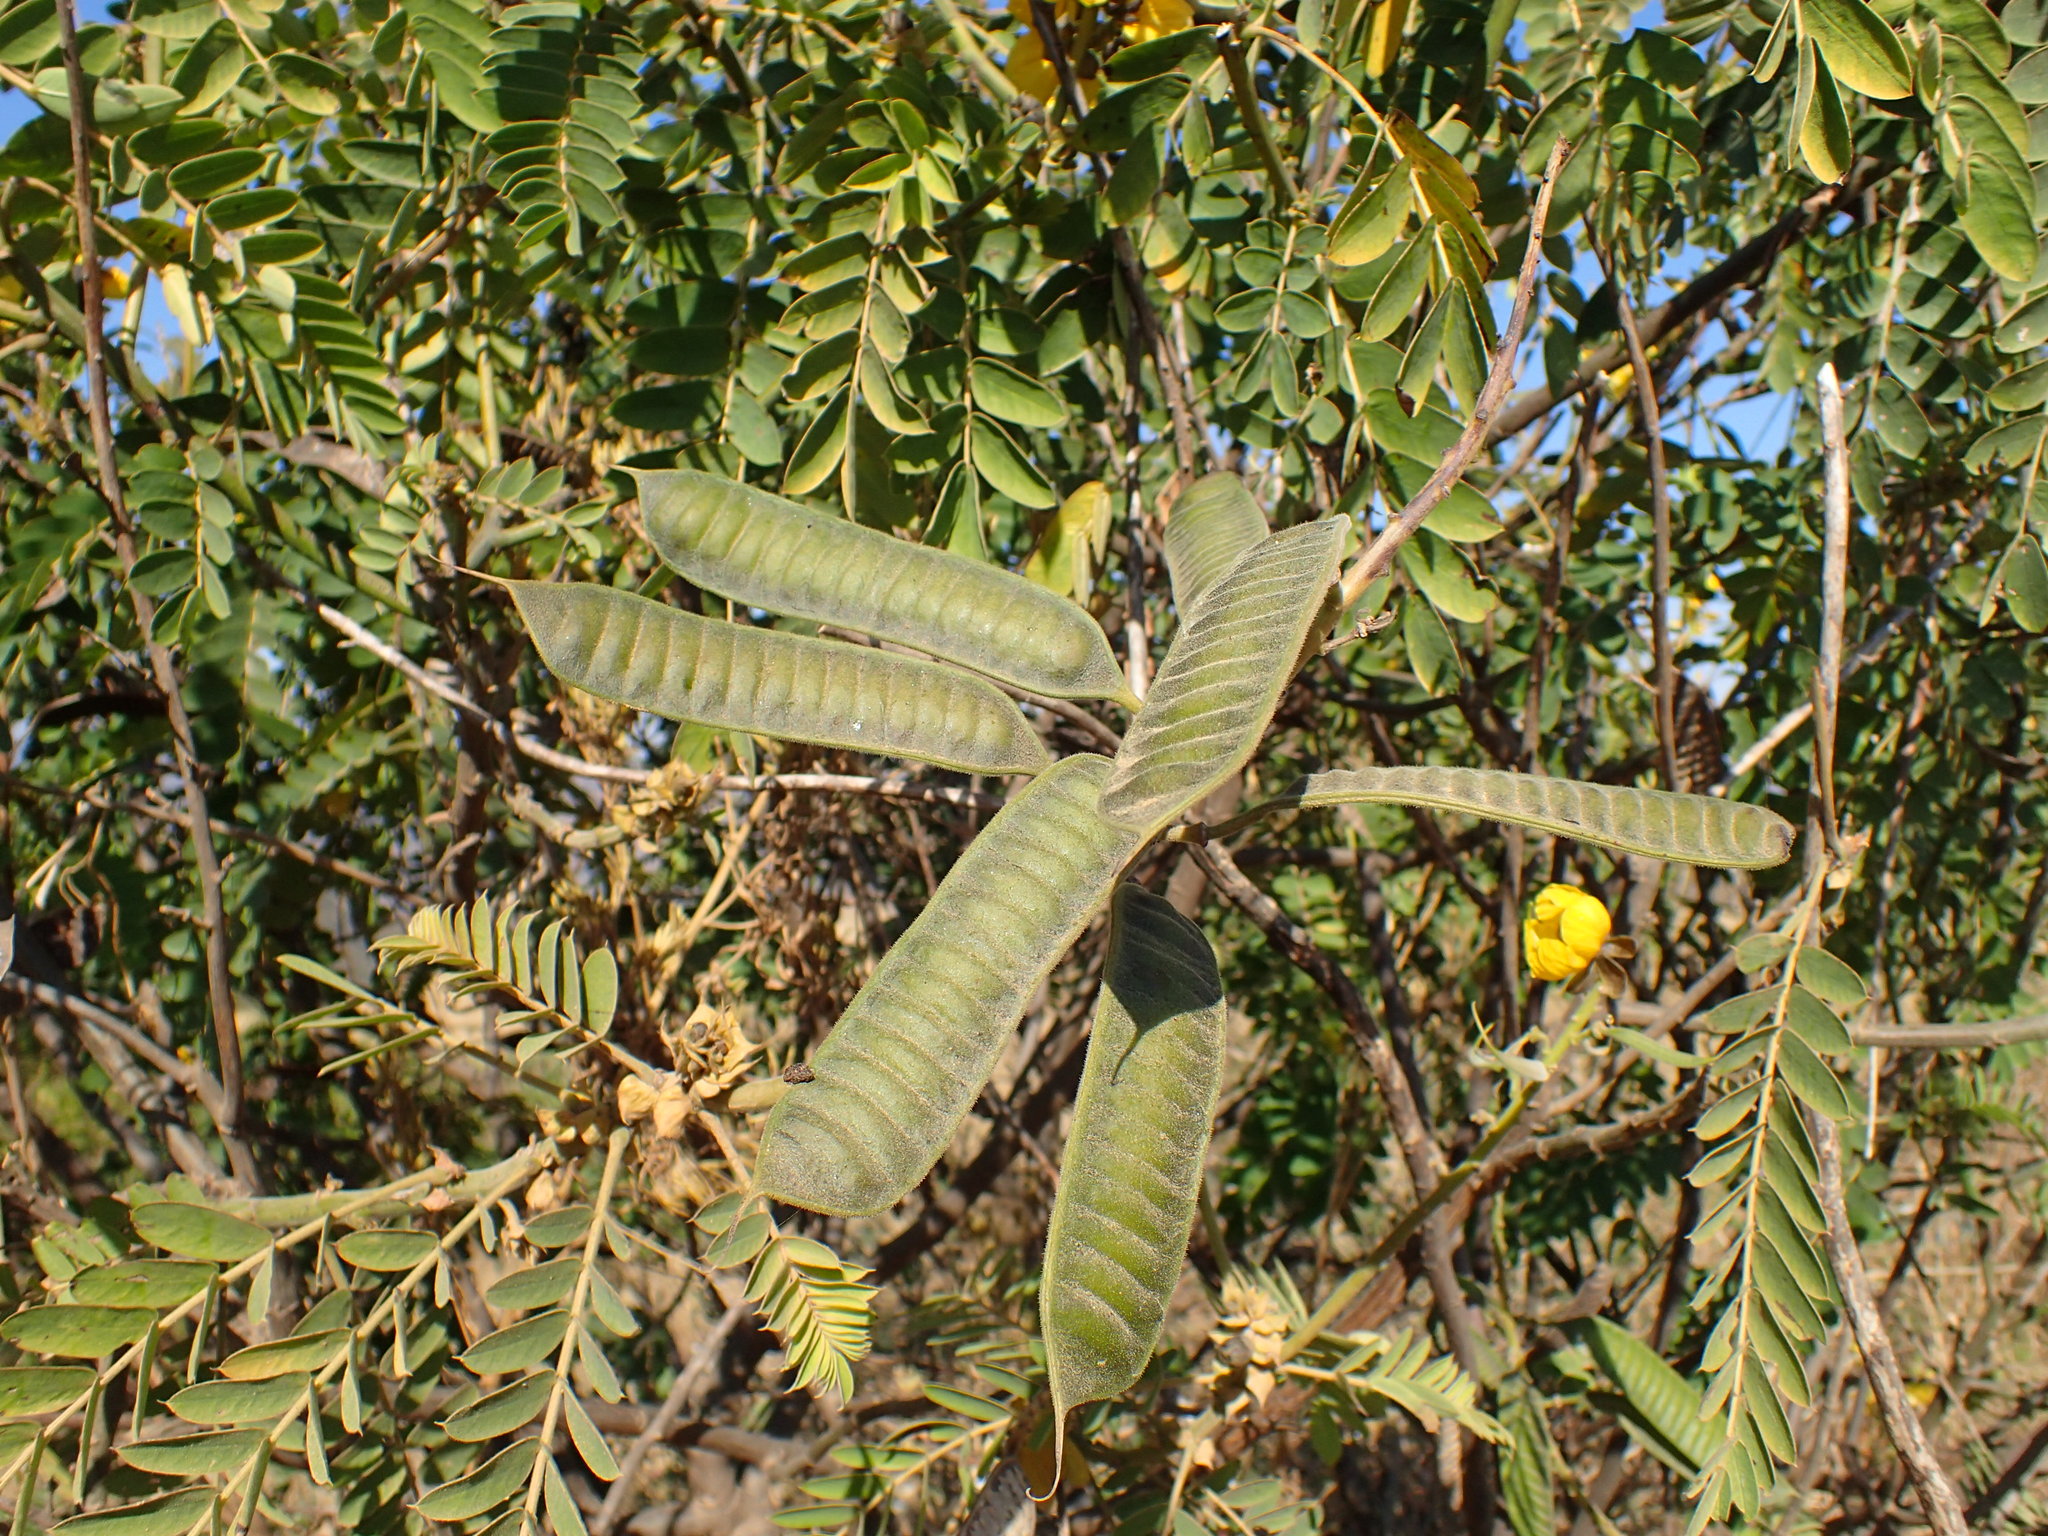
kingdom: Plantae
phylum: Tracheophyta
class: Magnoliopsida
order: Fabales
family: Fabaceae
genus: Senna
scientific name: Senna didymobotrya
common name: African senna
